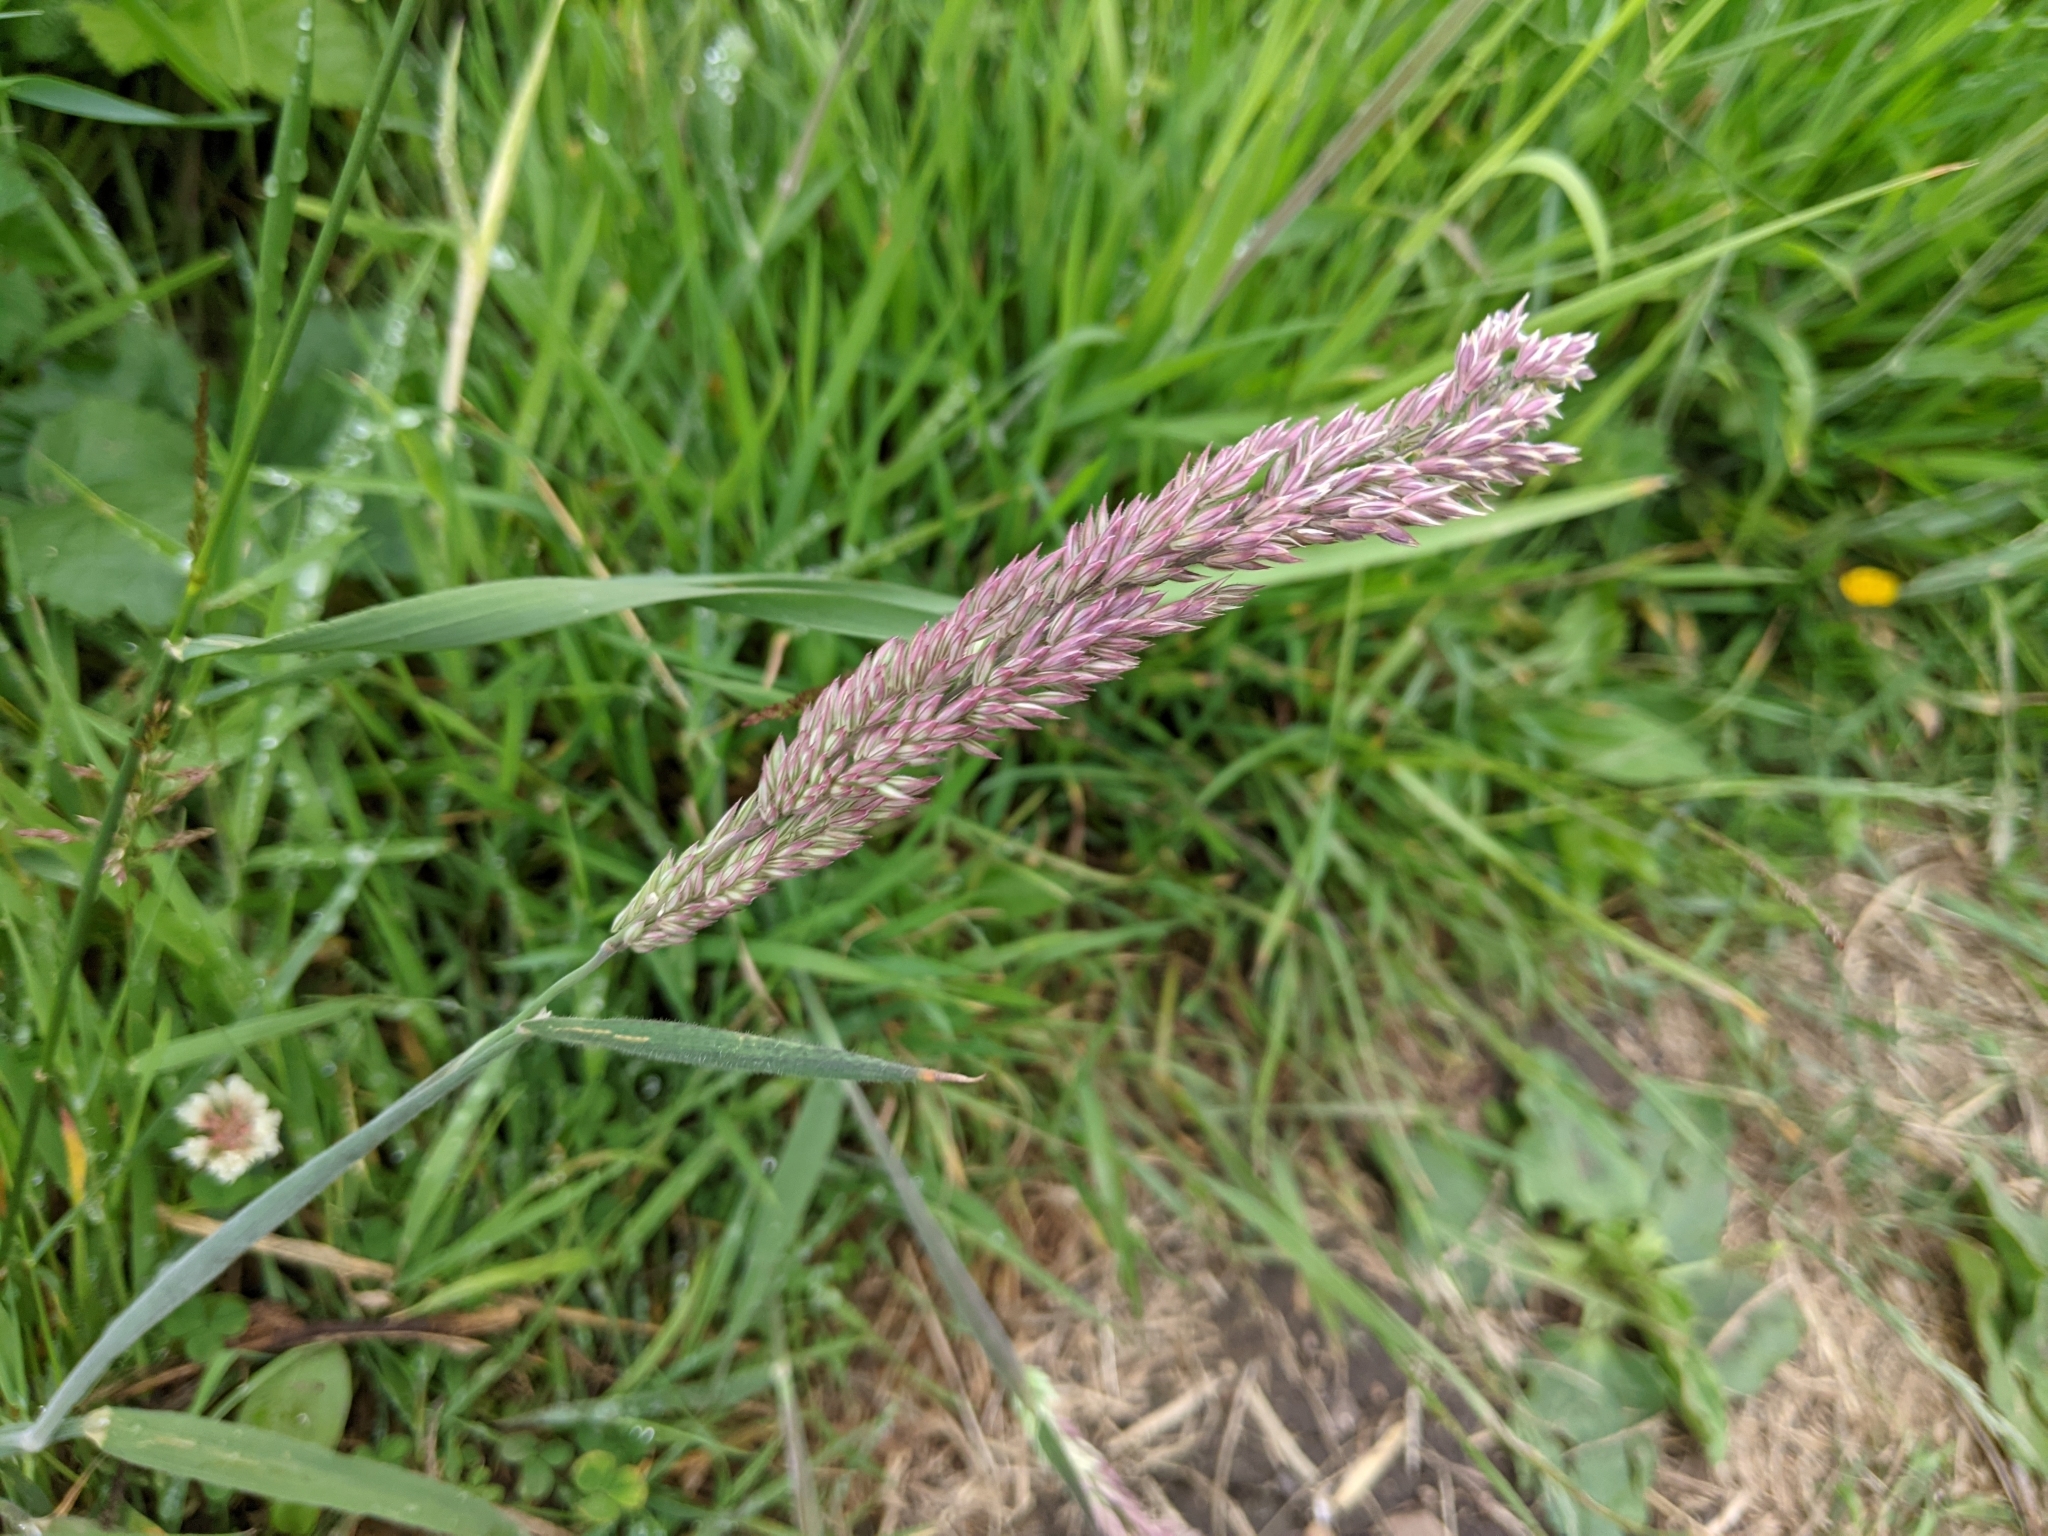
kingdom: Plantae
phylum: Tracheophyta
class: Liliopsida
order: Poales
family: Poaceae
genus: Holcus
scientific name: Holcus lanatus
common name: Yorkshire-fog
